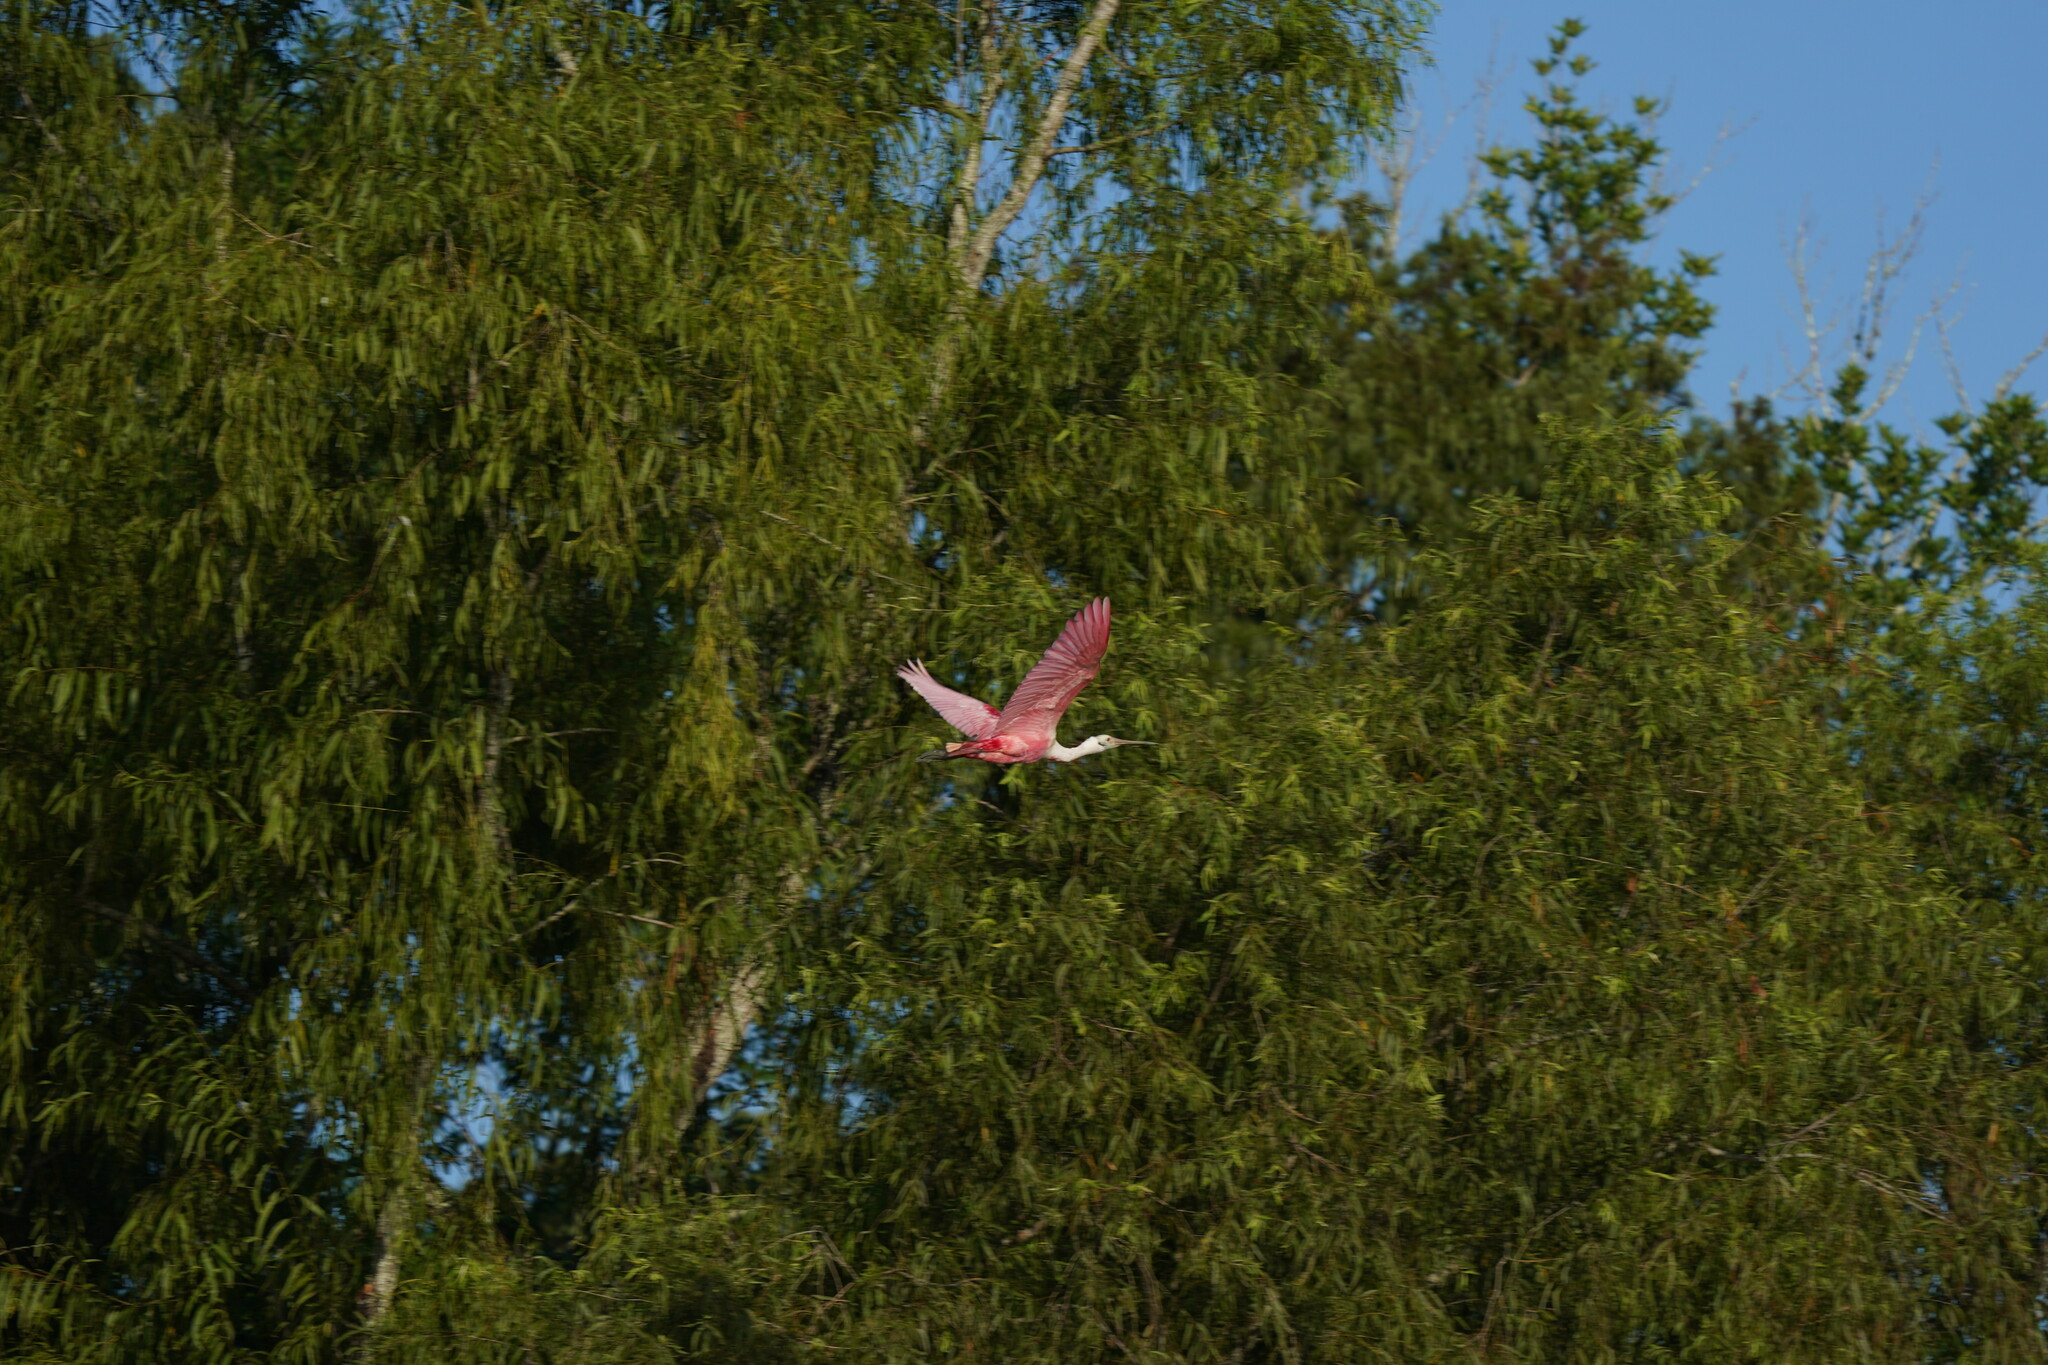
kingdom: Animalia
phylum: Chordata
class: Aves
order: Pelecaniformes
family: Threskiornithidae
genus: Platalea
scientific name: Platalea ajaja
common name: Roseate spoonbill
